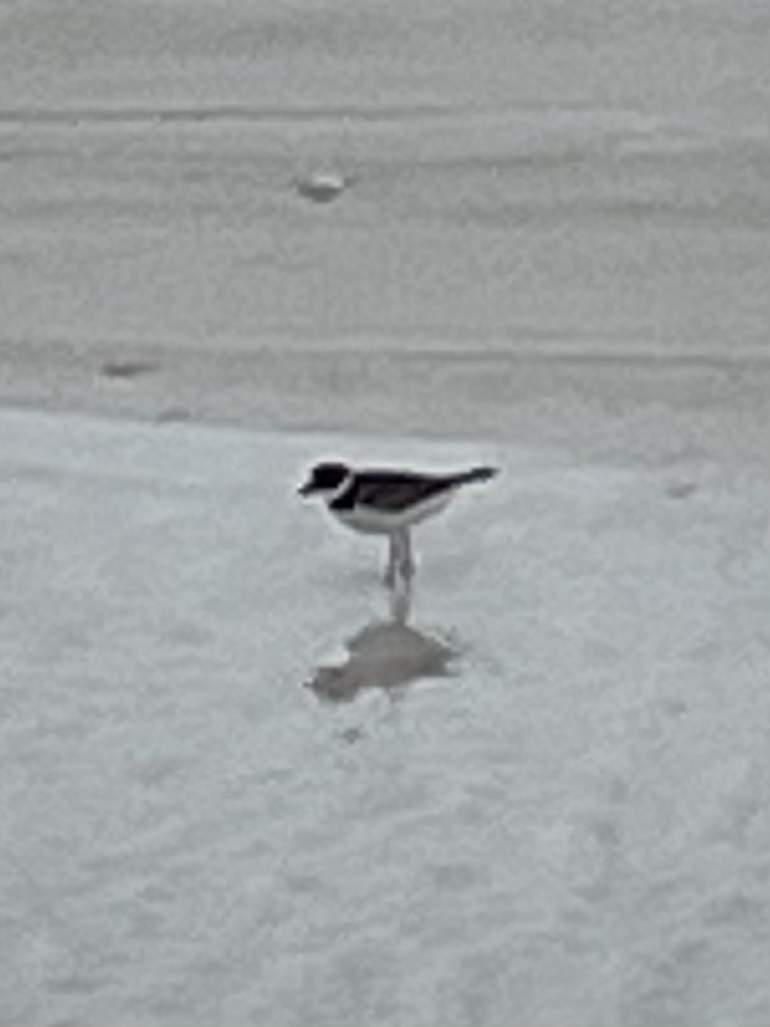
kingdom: Animalia
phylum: Chordata
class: Aves
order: Charadriiformes
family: Charadriidae
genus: Charadrius
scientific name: Charadrius semipalmatus
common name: Semipalmated plover
